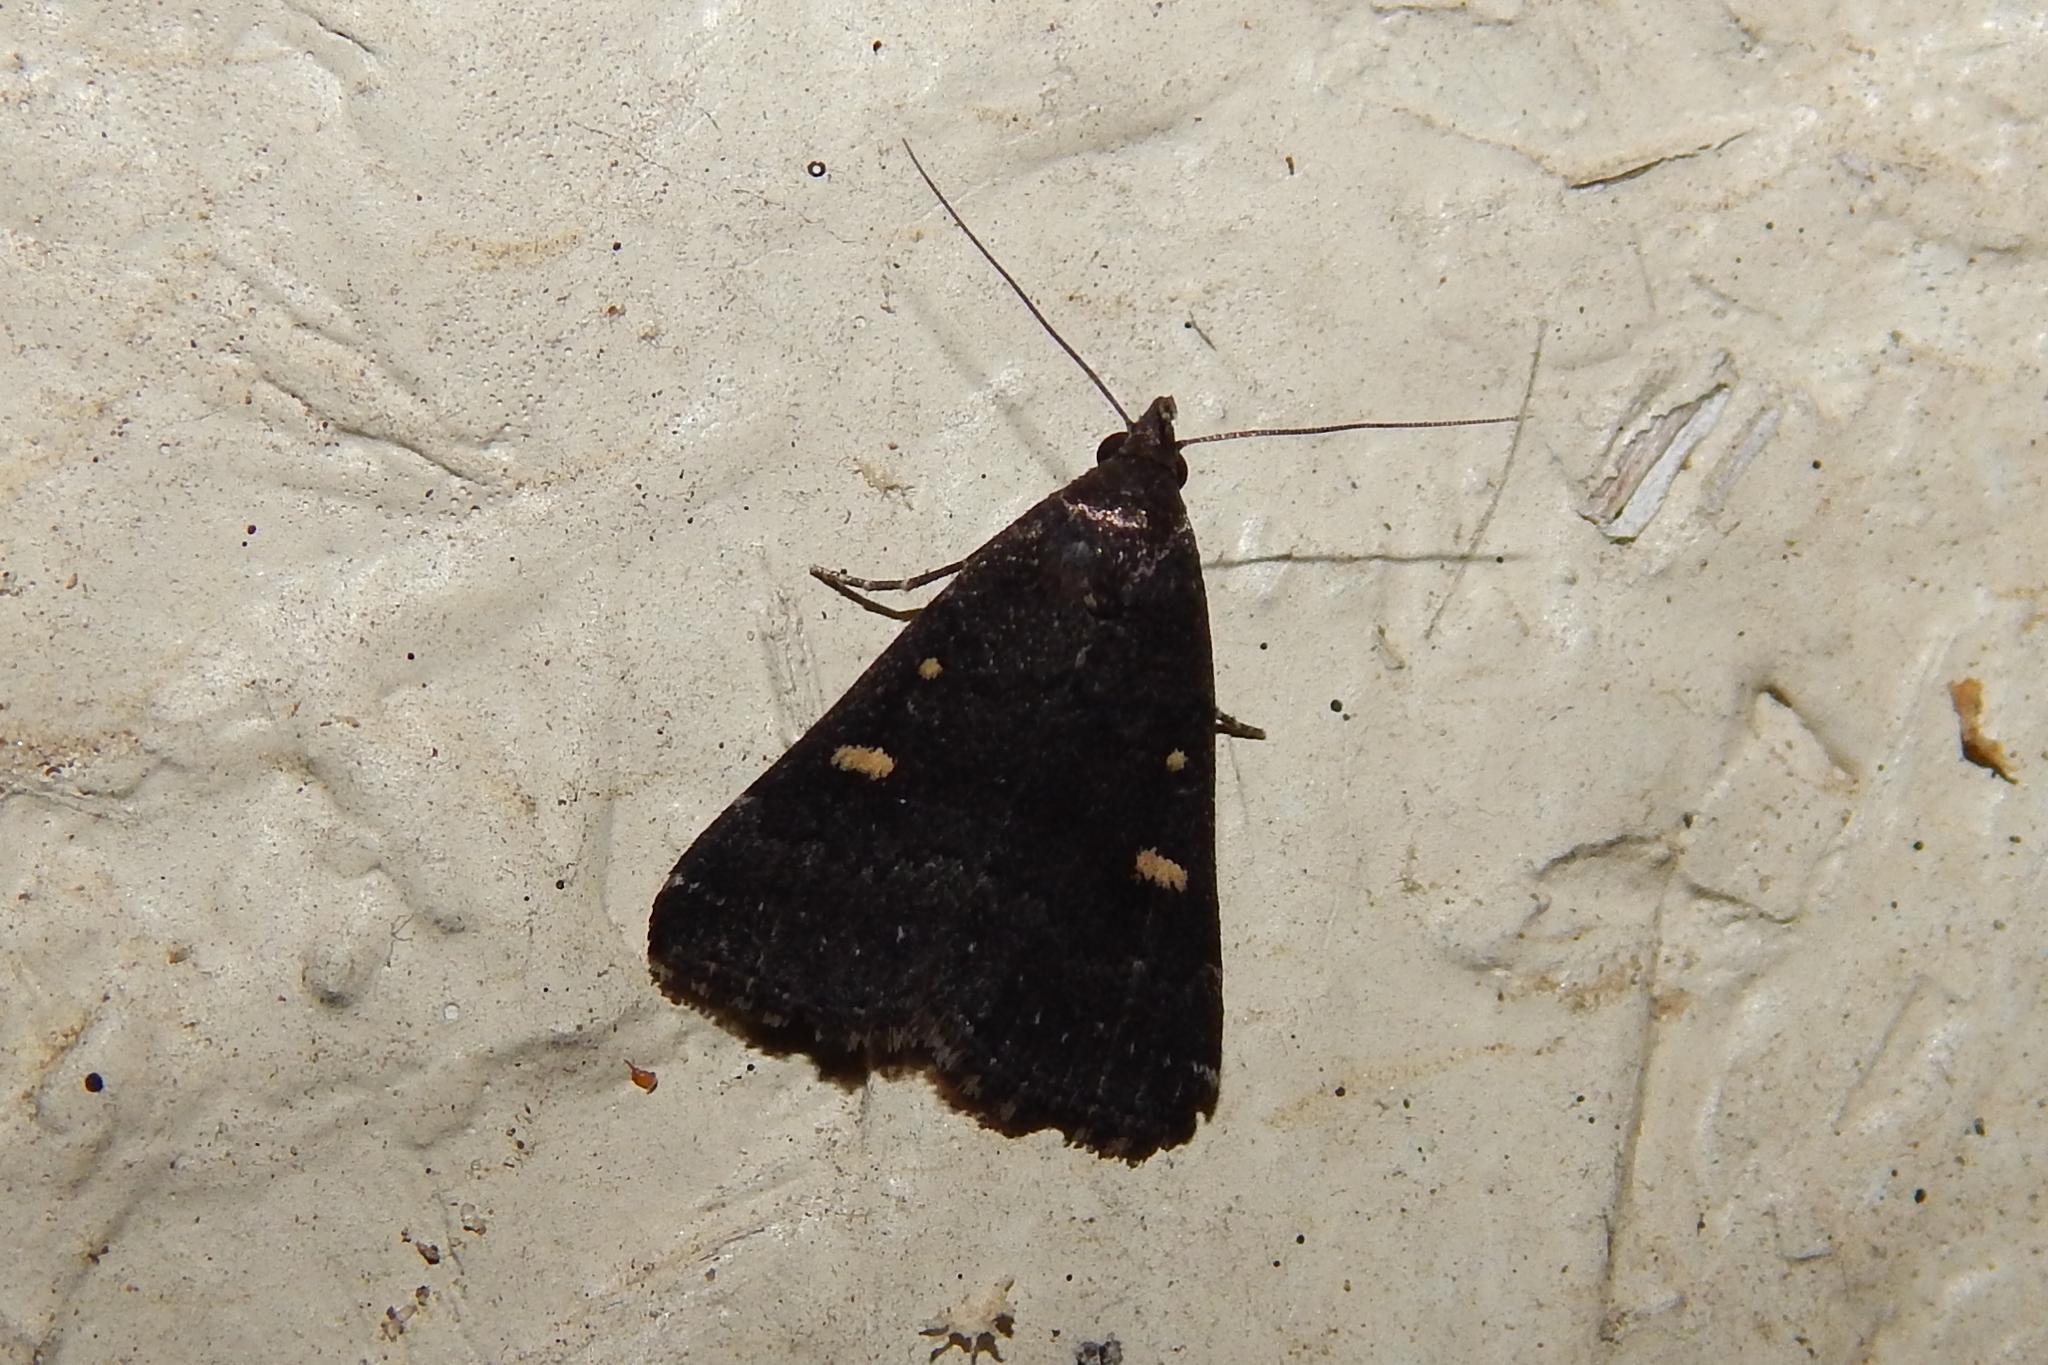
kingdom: Animalia
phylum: Arthropoda
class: Insecta
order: Lepidoptera
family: Erebidae
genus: Tetanolita
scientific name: Tetanolita mynesalis
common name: Smoky tetanolita moth
